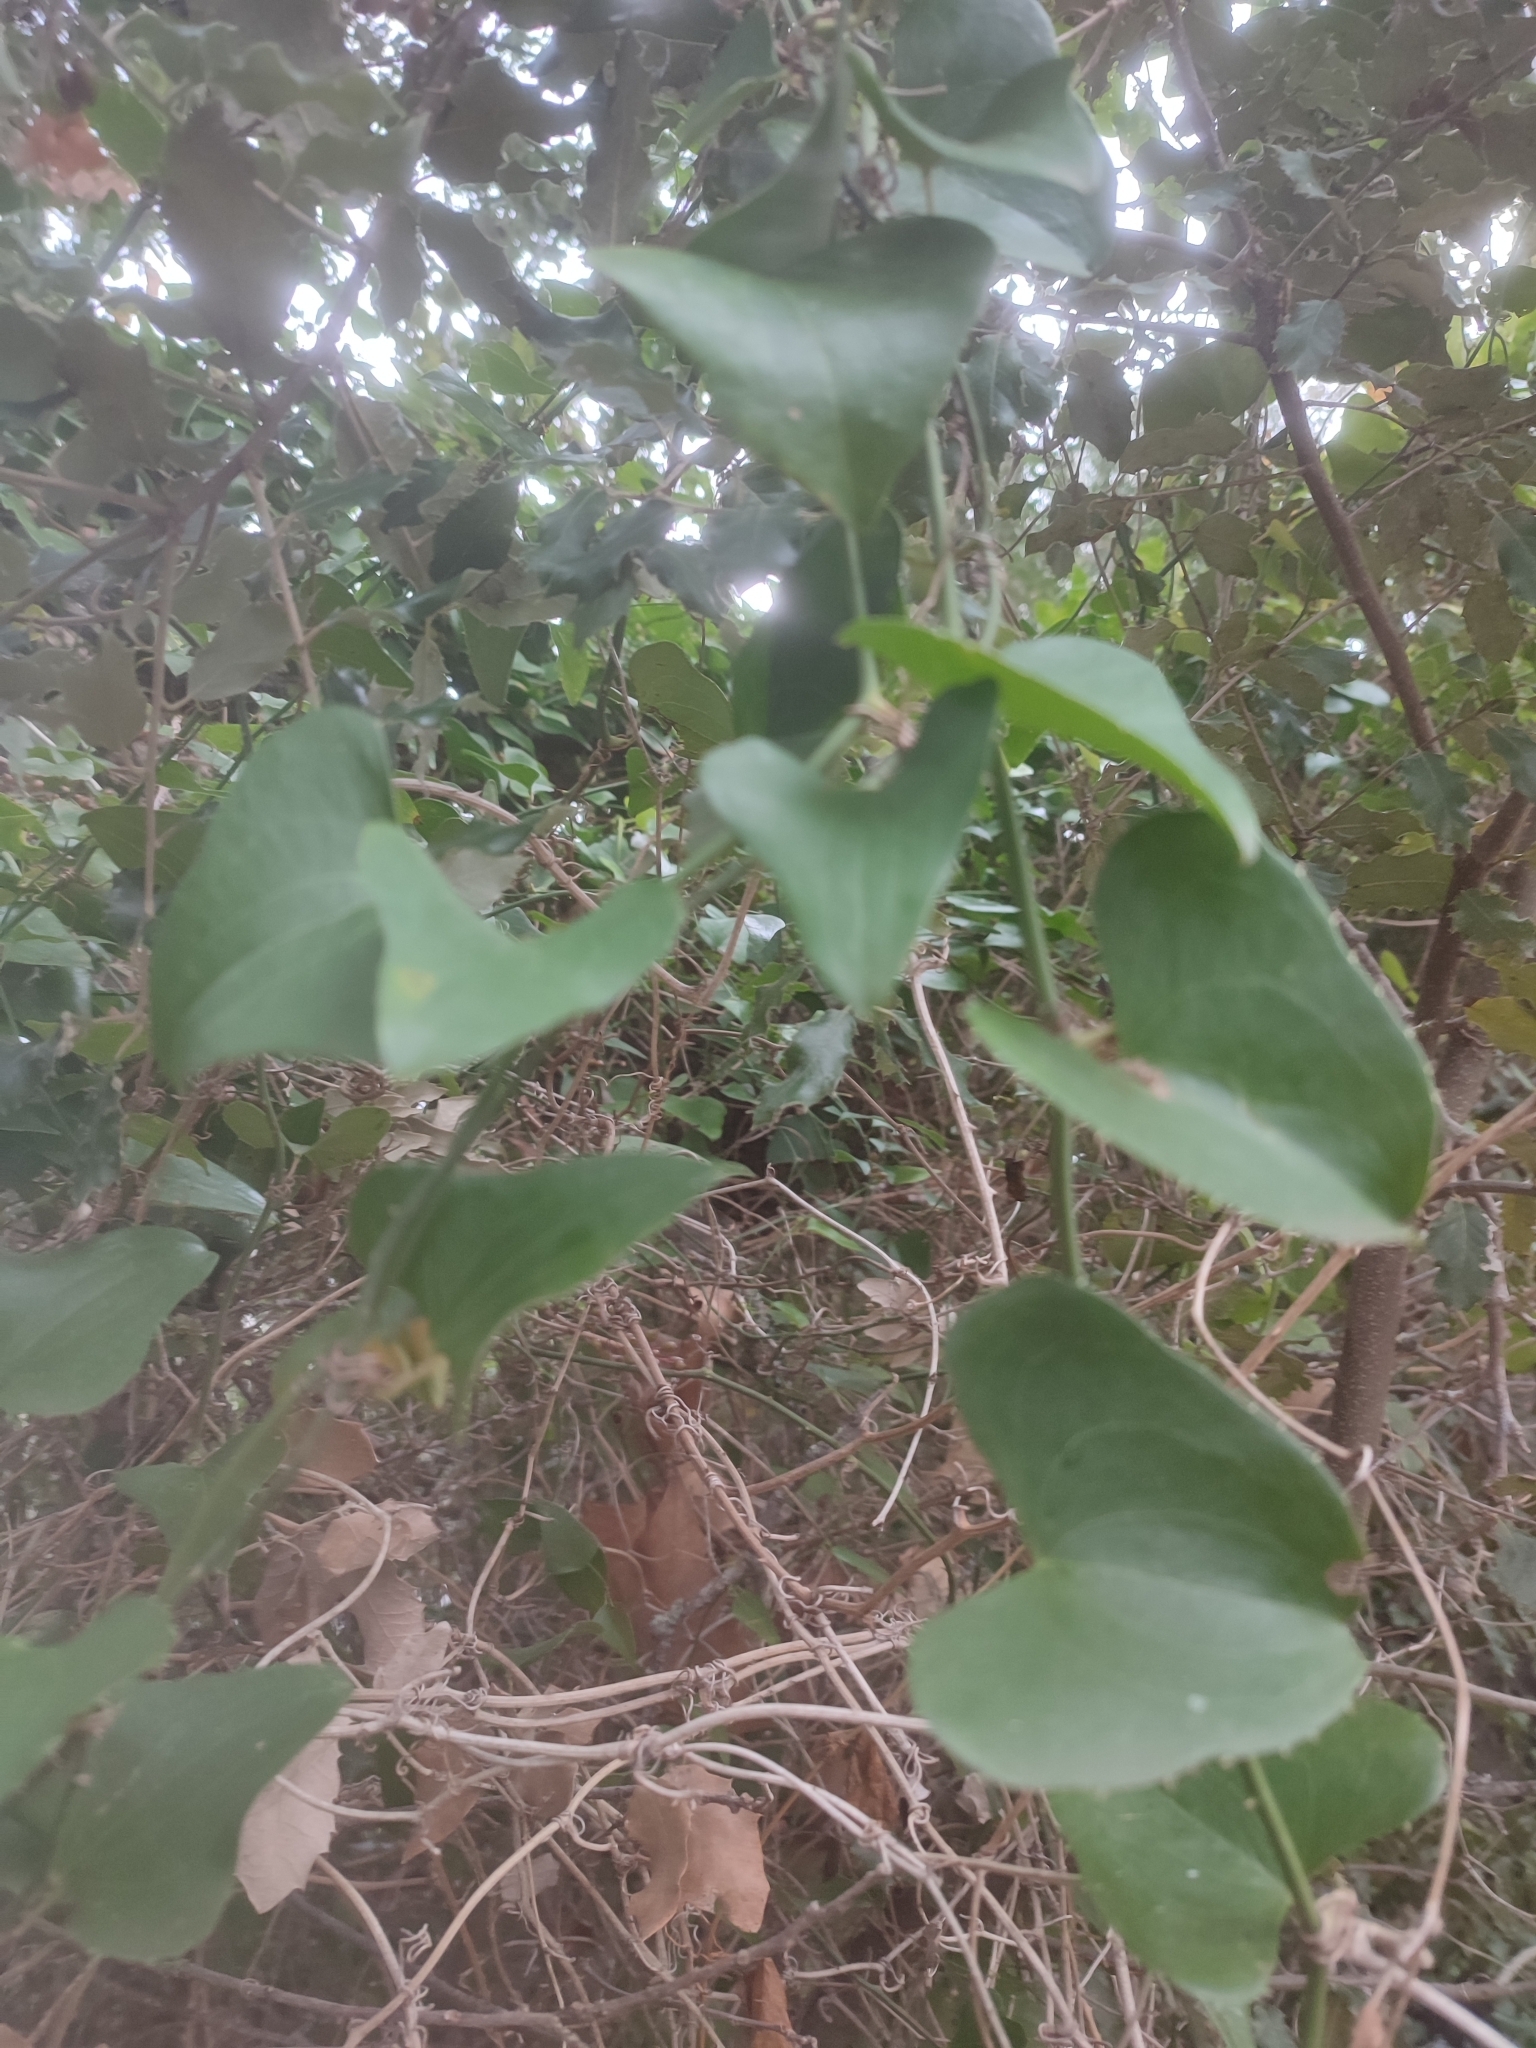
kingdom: Plantae
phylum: Tracheophyta
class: Liliopsida
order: Liliales
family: Smilacaceae
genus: Smilax
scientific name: Smilax aspera
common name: Common smilax
